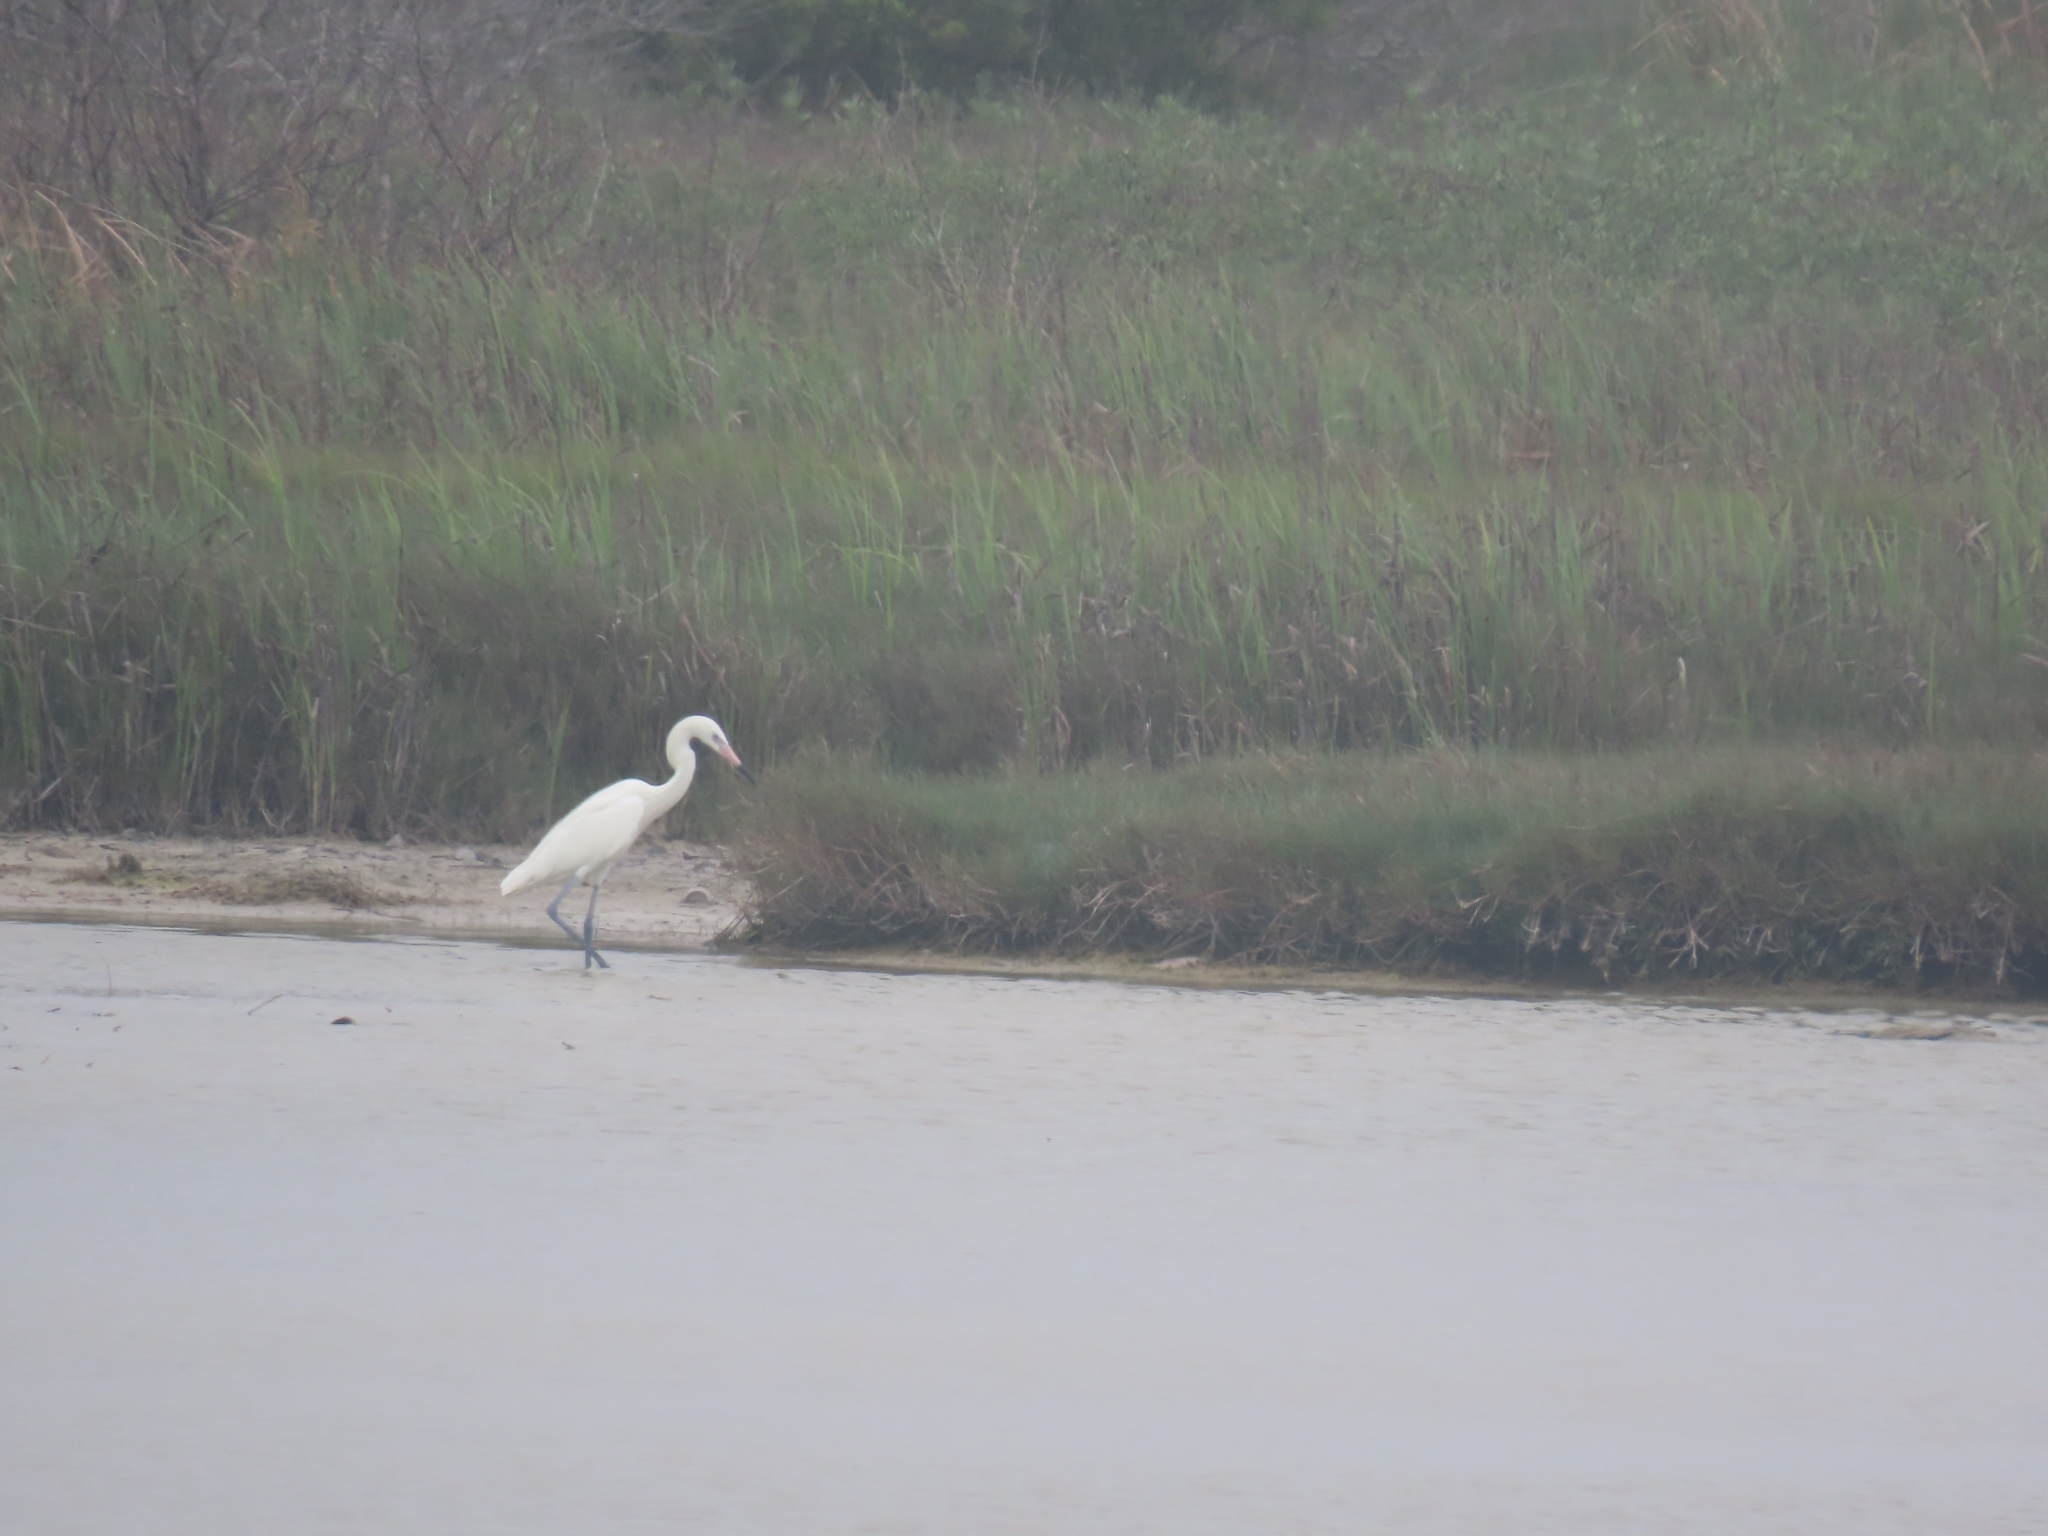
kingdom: Animalia
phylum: Chordata
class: Aves
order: Pelecaniformes
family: Ardeidae
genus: Egretta
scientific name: Egretta rufescens
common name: Reddish egret
